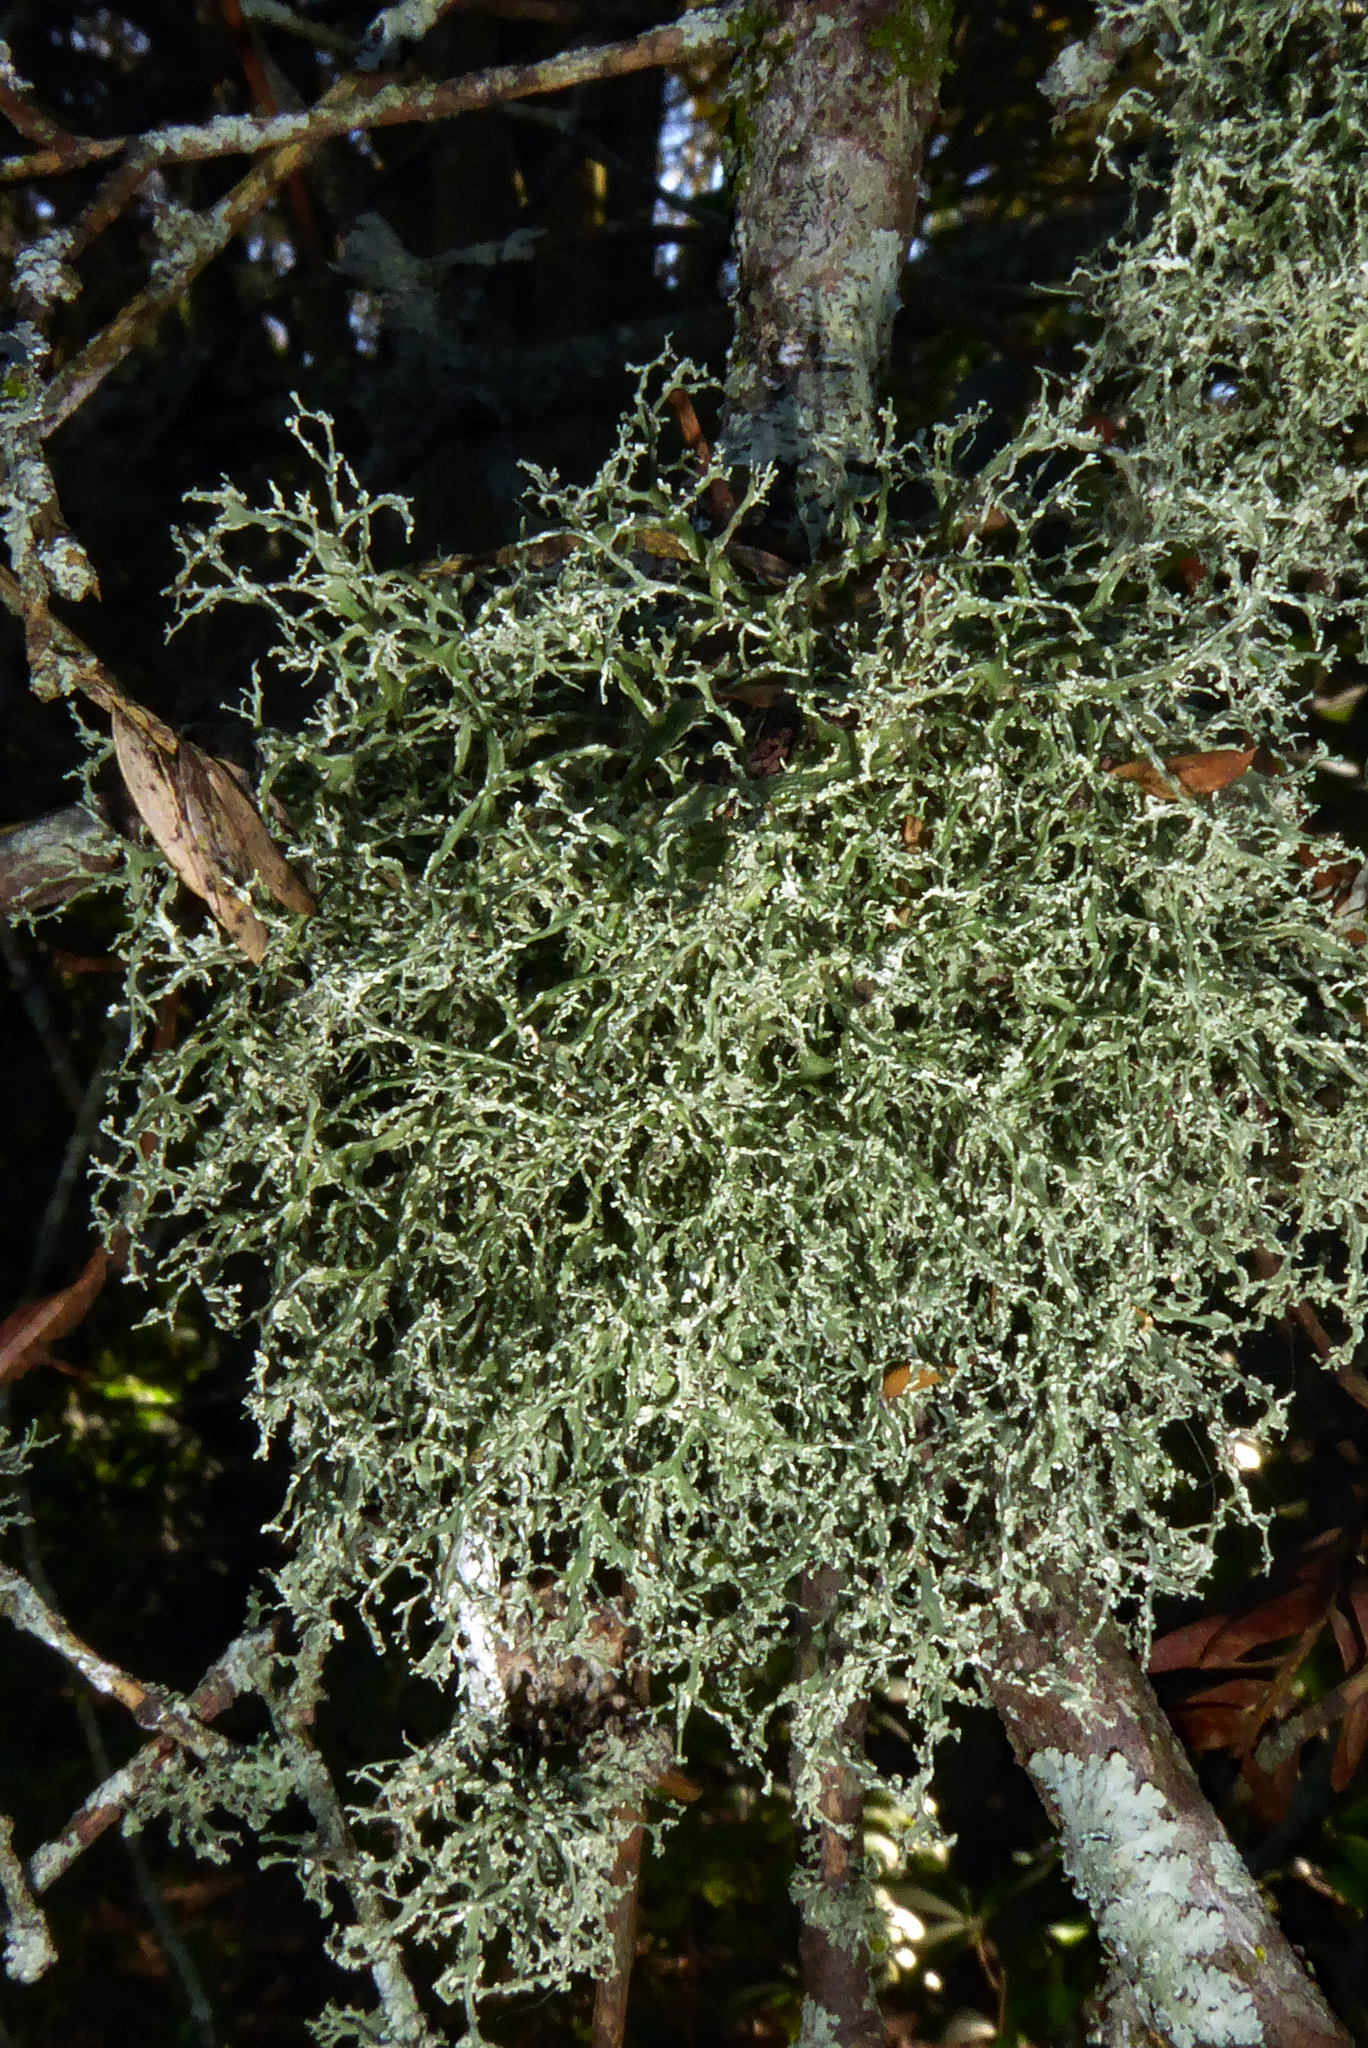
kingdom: Fungi
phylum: Ascomycota
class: Lecanoromycetes
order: Lecanorales
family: Ramalinaceae
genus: Ramalina
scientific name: Ramalina peruviana
